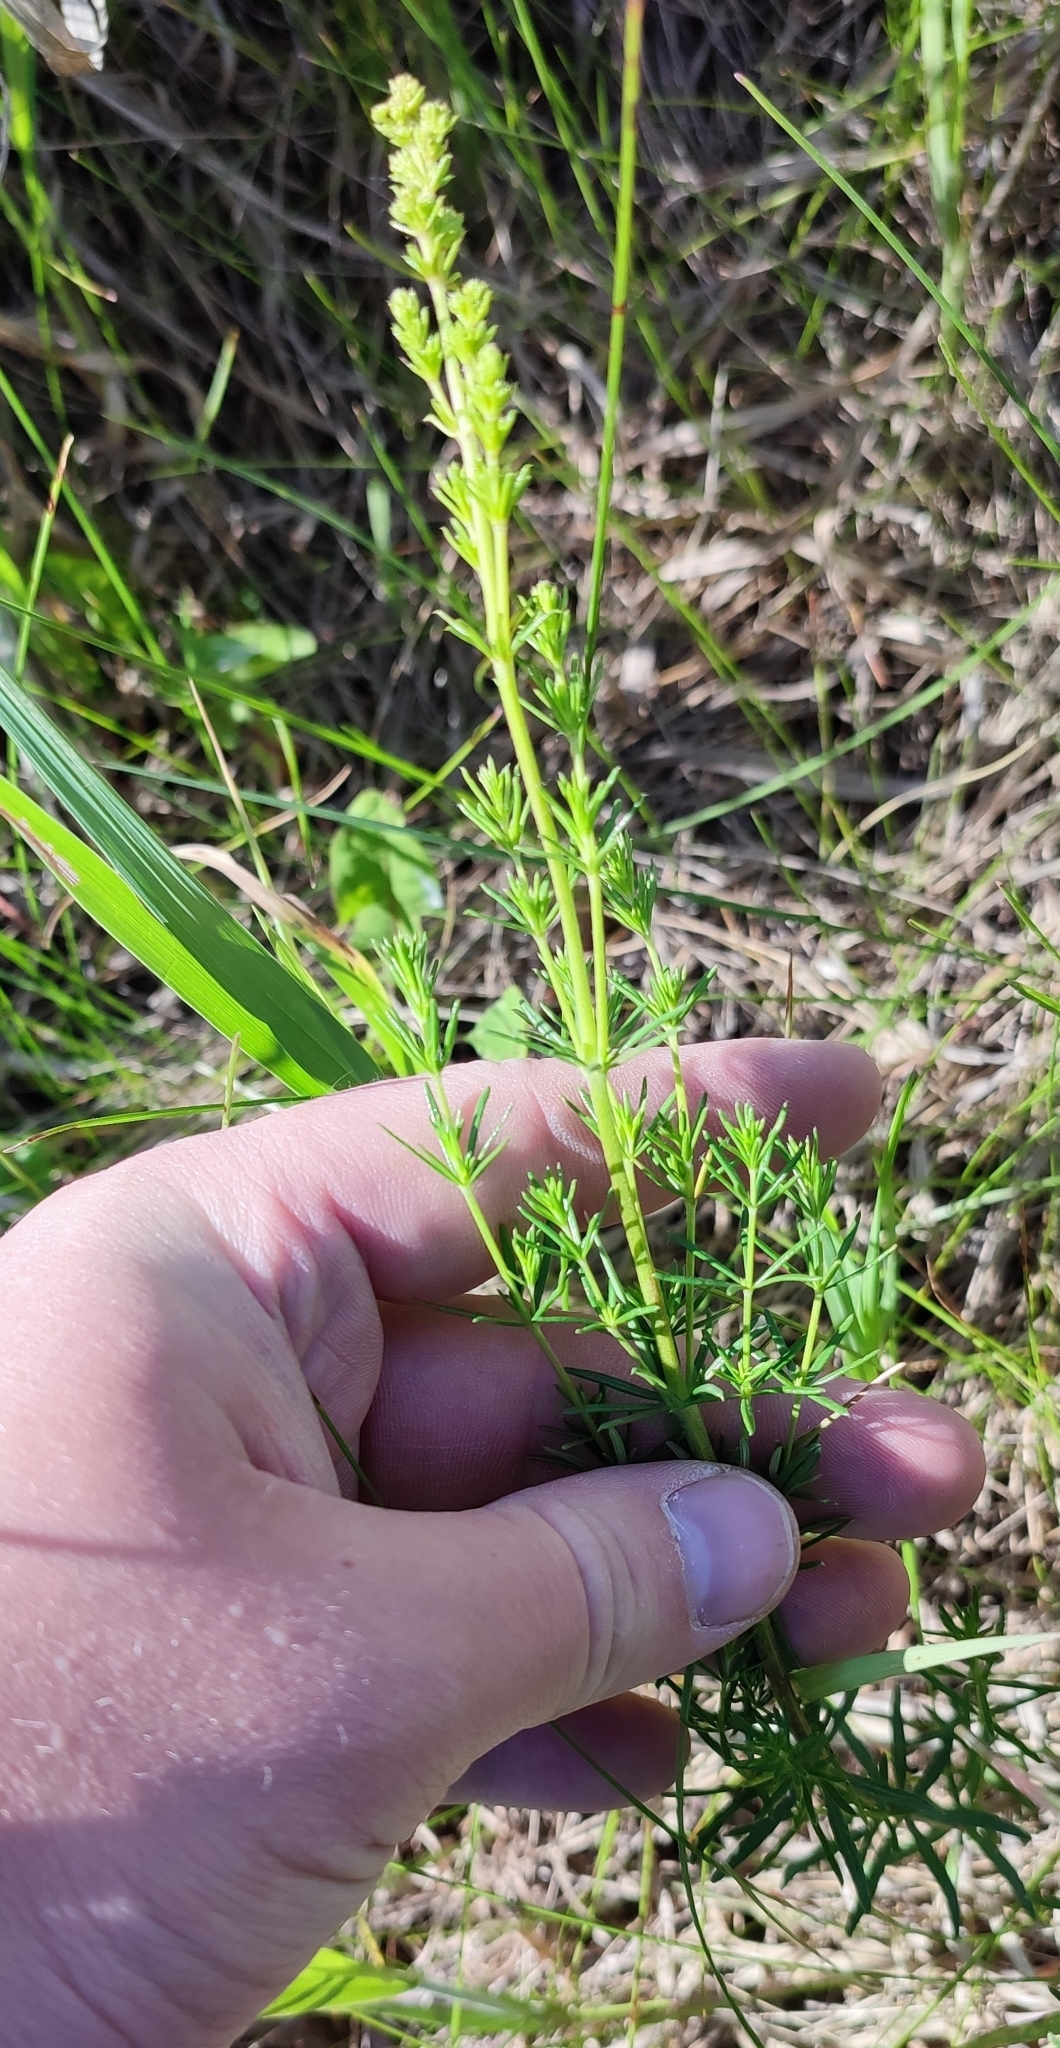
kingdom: Plantae
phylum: Tracheophyta
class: Magnoliopsida
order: Gentianales
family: Rubiaceae
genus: Galium
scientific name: Galium verum
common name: Lady's bedstraw
